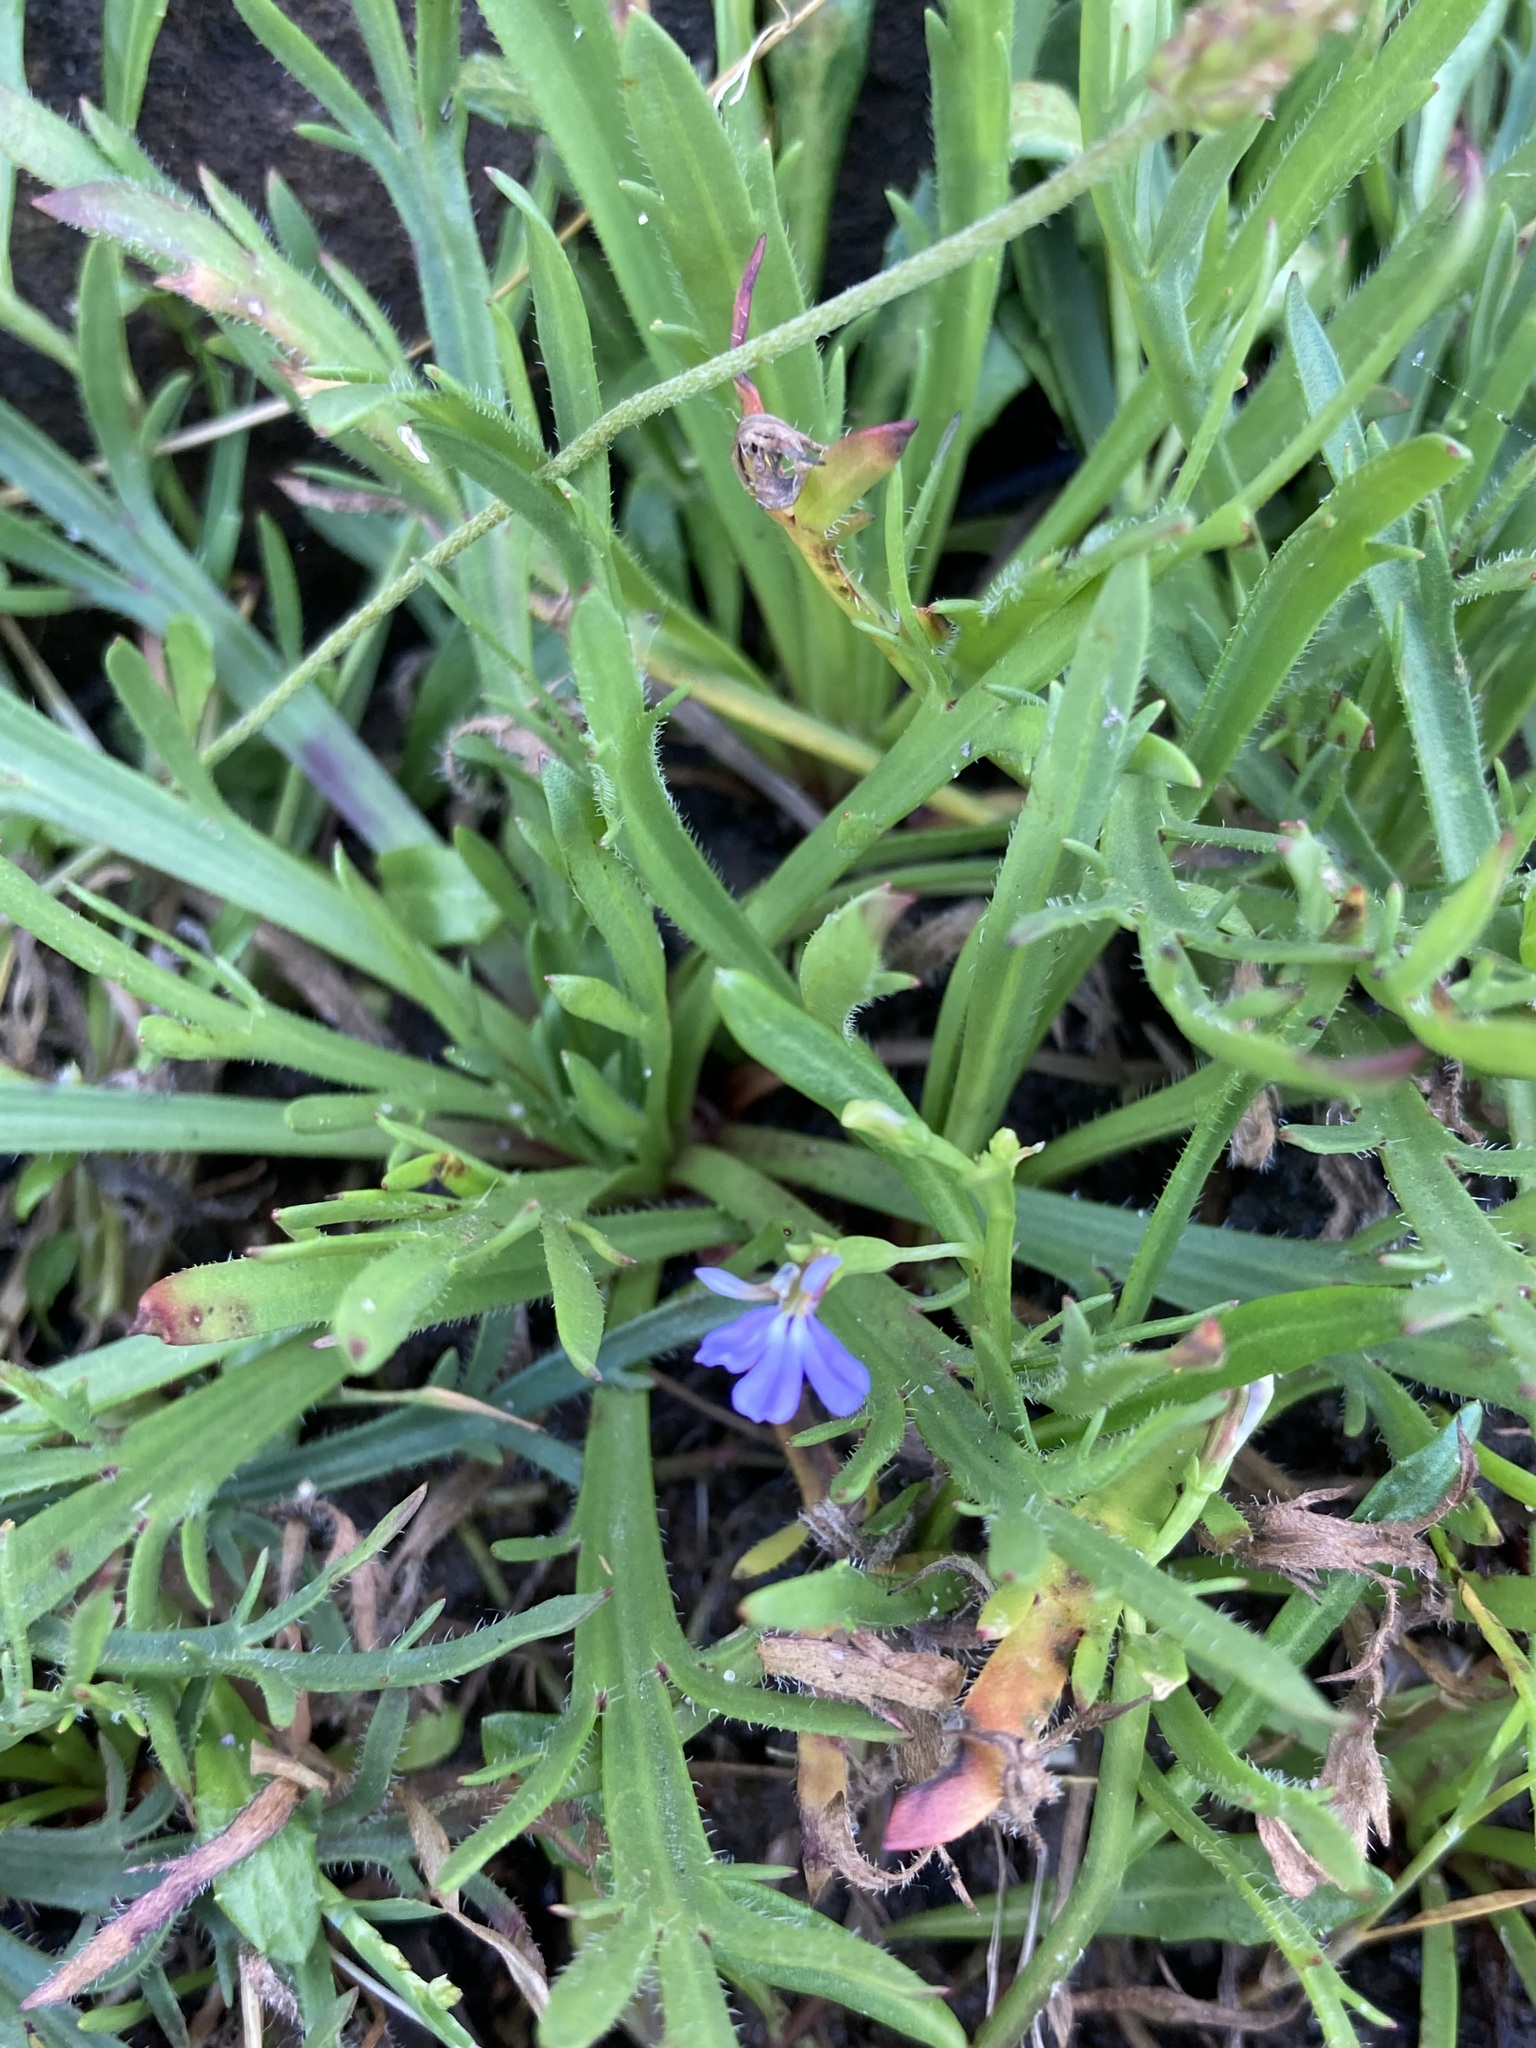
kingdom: Plantae
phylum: Tracheophyta
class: Magnoliopsida
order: Asterales
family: Campanulaceae
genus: Lobelia
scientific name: Lobelia anceps
